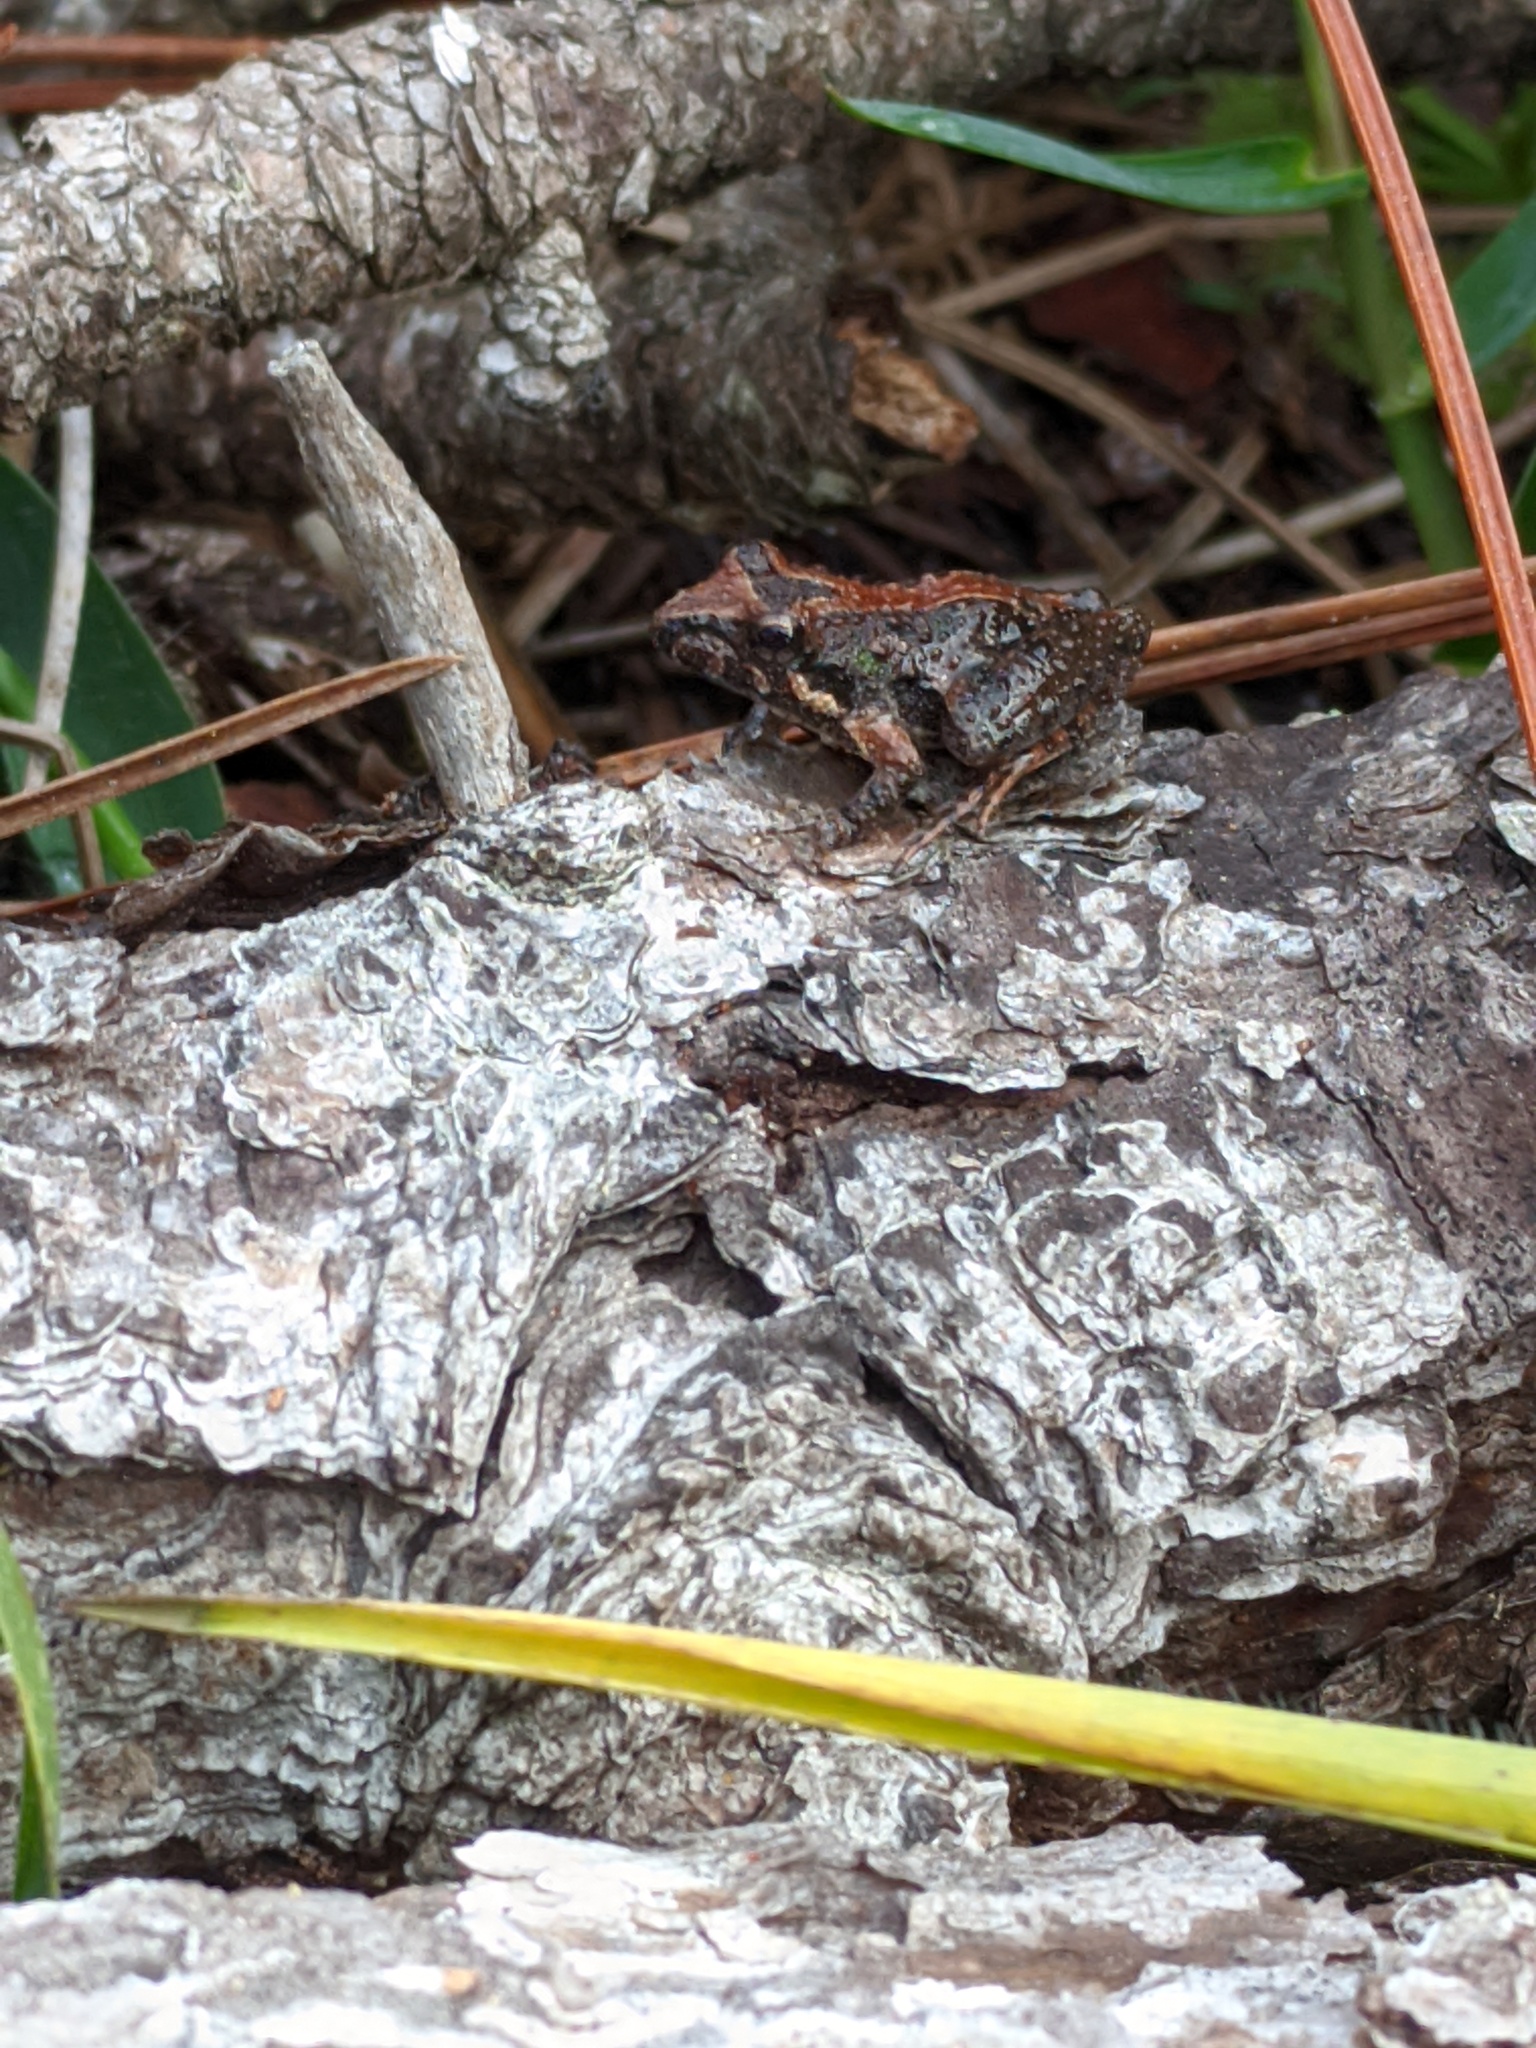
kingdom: Animalia
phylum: Chordata
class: Amphibia
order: Anura
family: Hylidae
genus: Acris
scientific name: Acris gryllus
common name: Southern cricket frog
